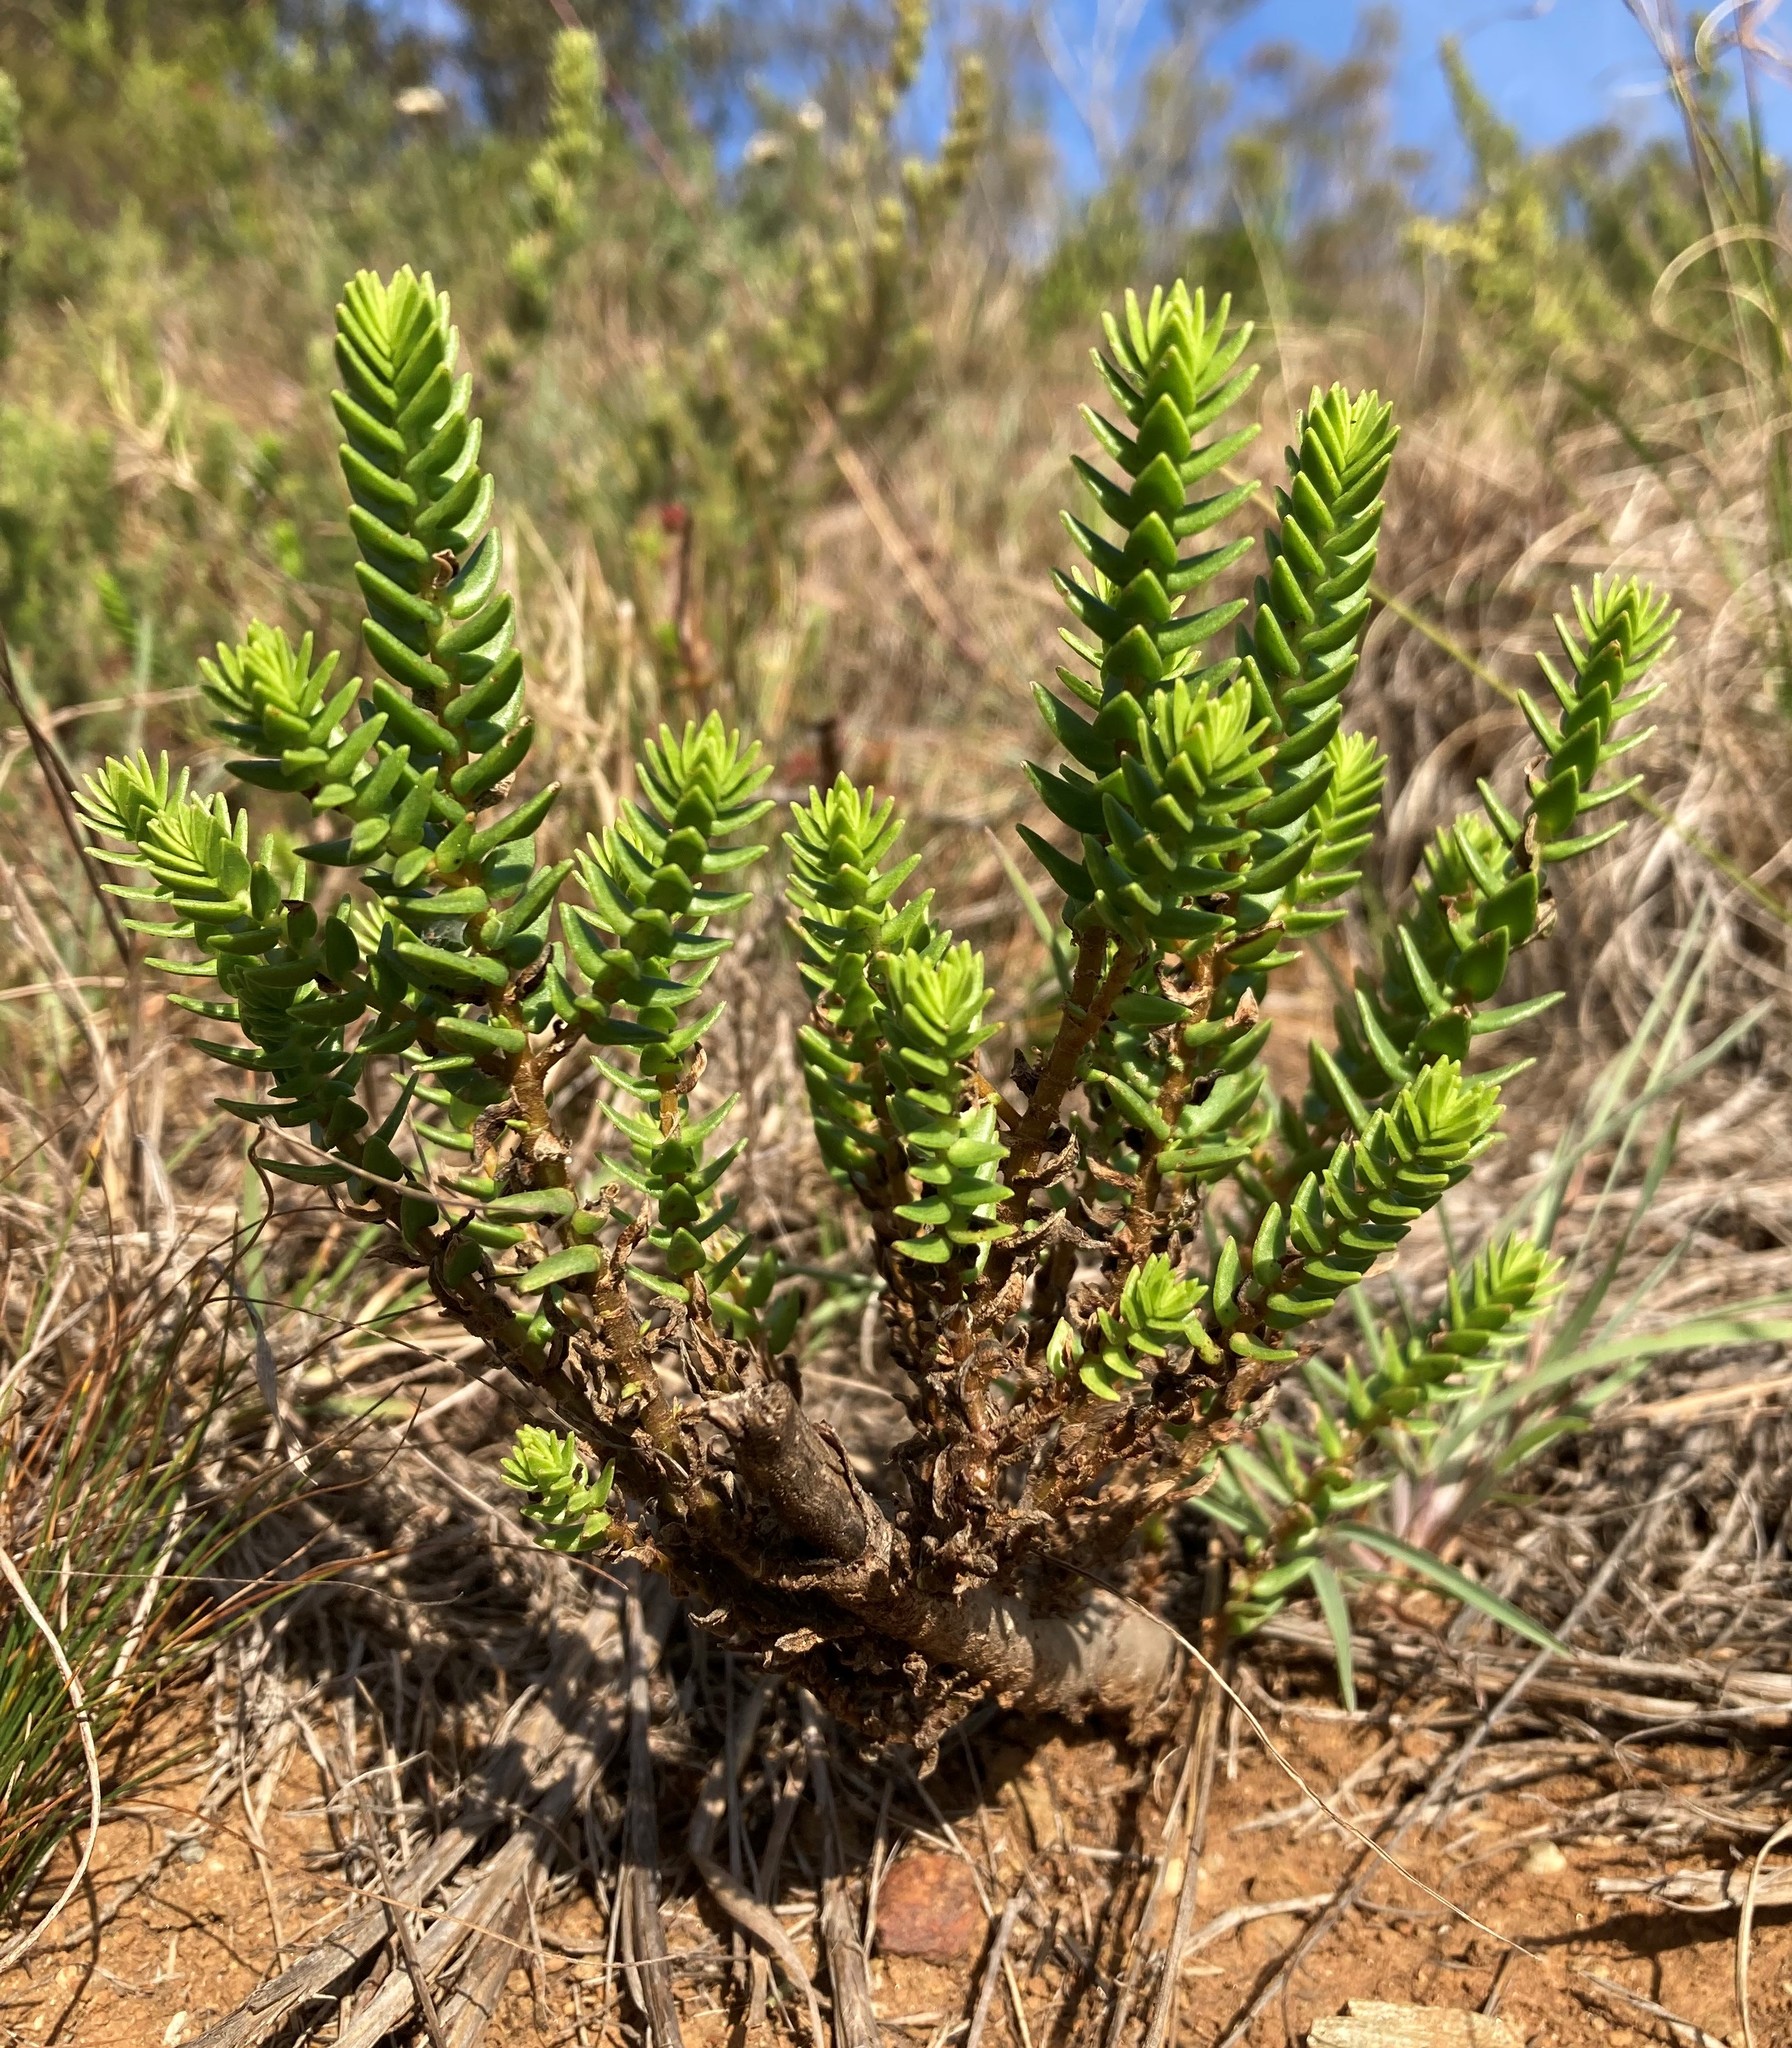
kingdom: Plantae
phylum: Tracheophyta
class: Magnoliopsida
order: Saxifragales
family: Crassulaceae
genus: Crassula
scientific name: Crassula ericoides
